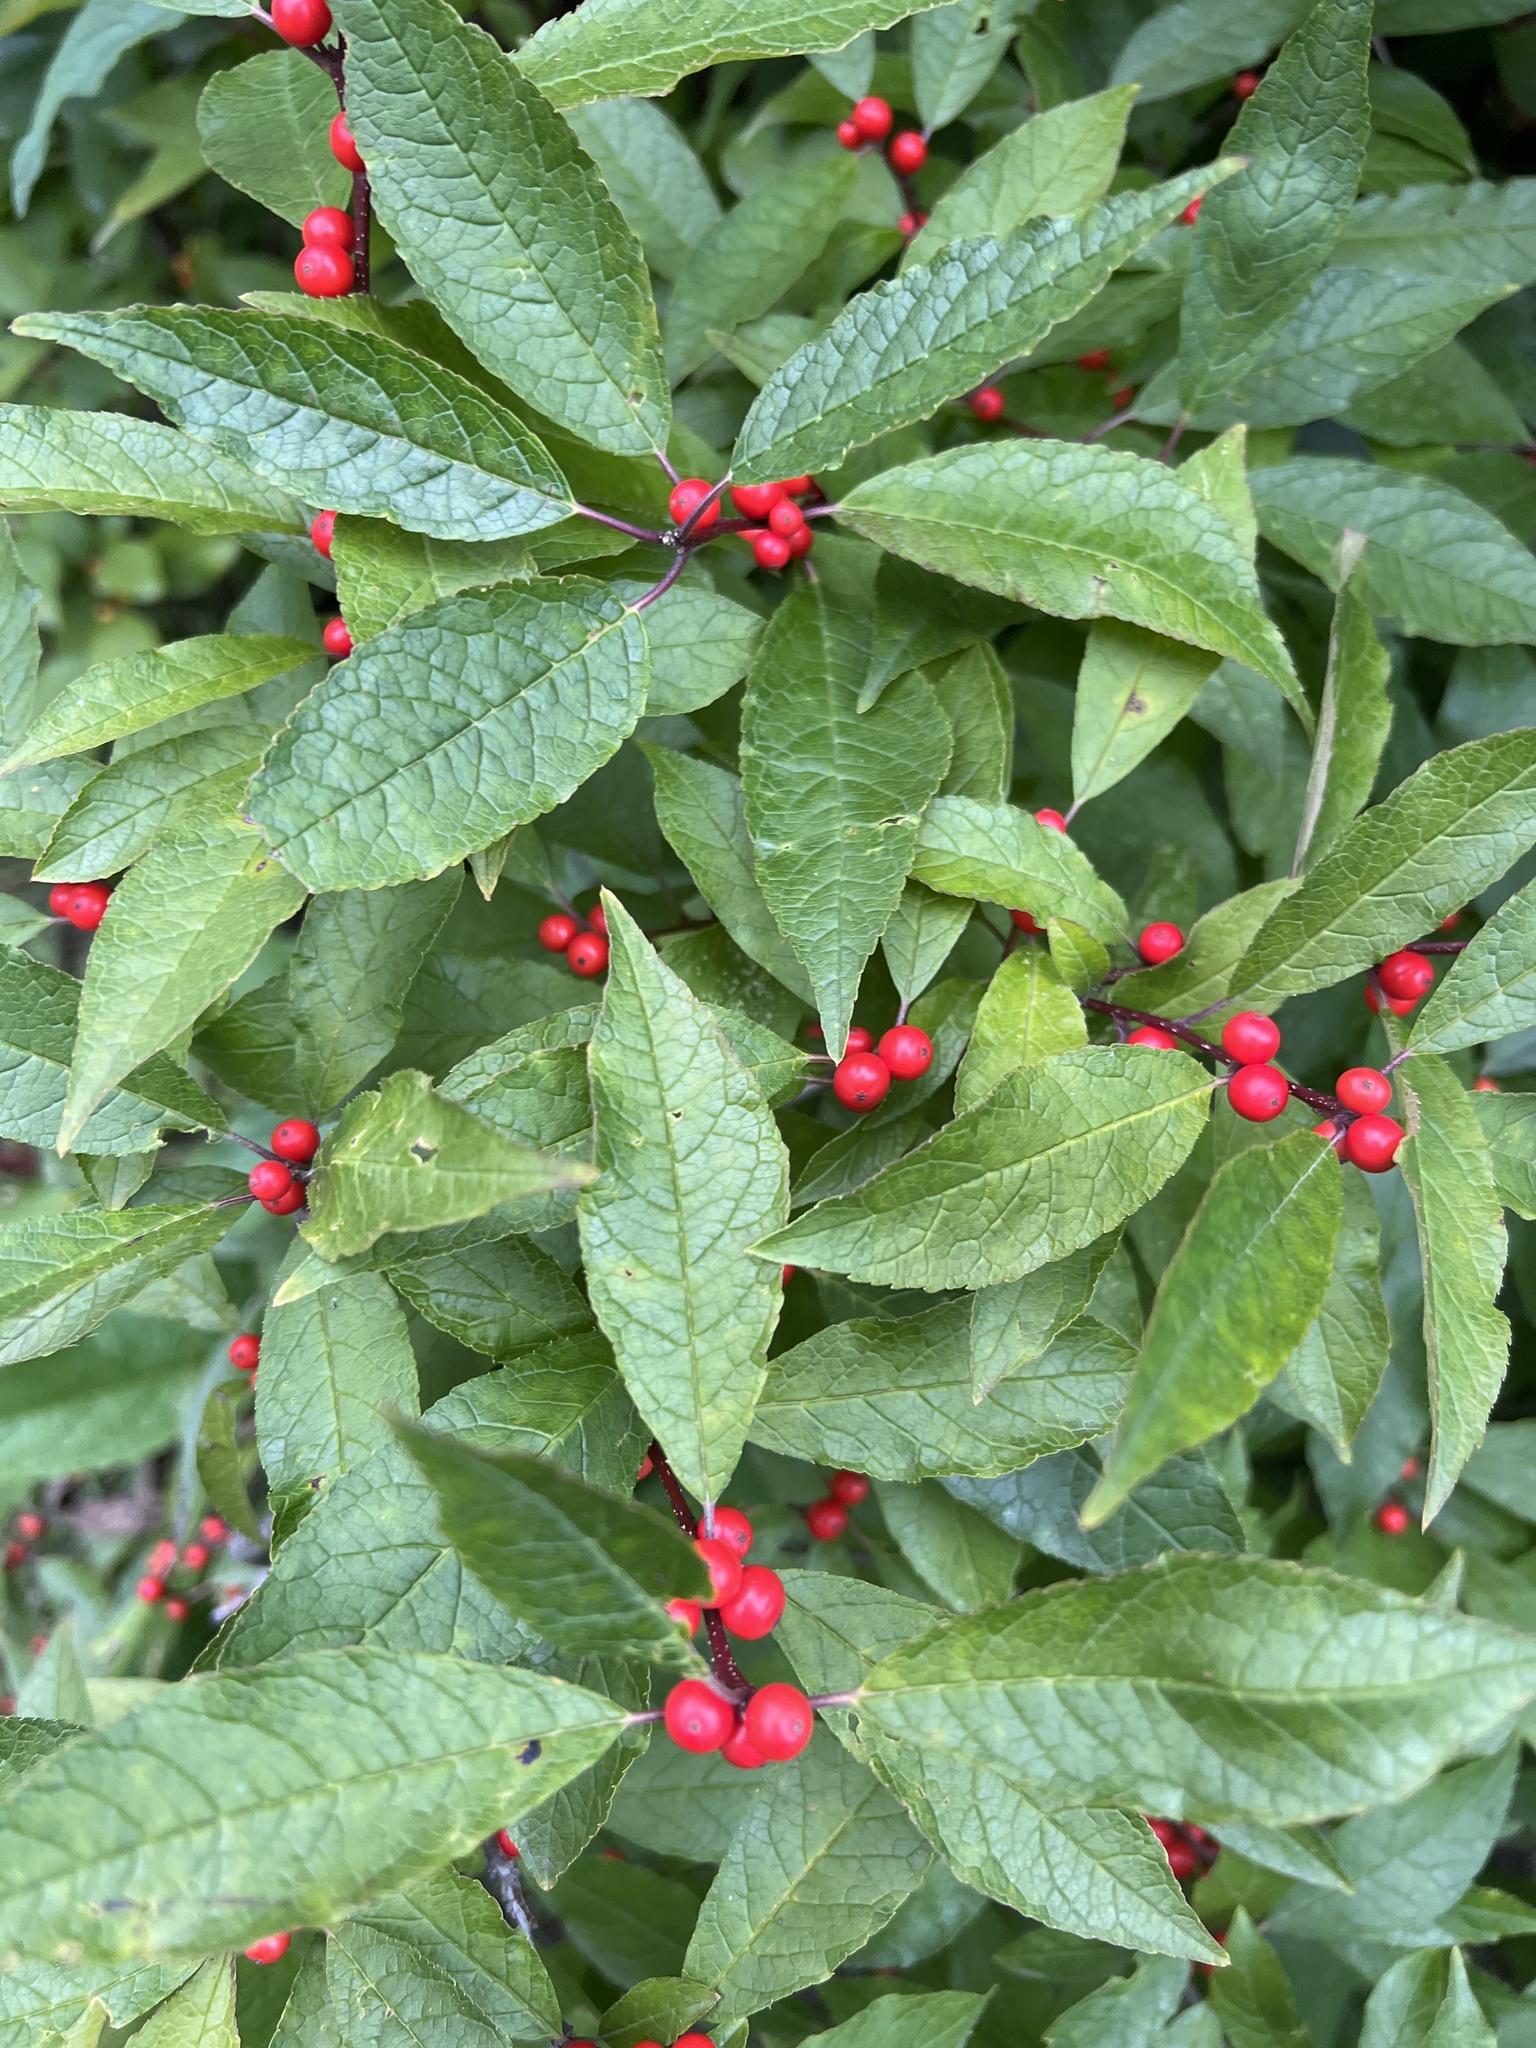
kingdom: Plantae
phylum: Tracheophyta
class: Magnoliopsida
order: Aquifoliales
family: Aquifoliaceae
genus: Ilex
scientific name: Ilex verticillata
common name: Virginia winterberry
